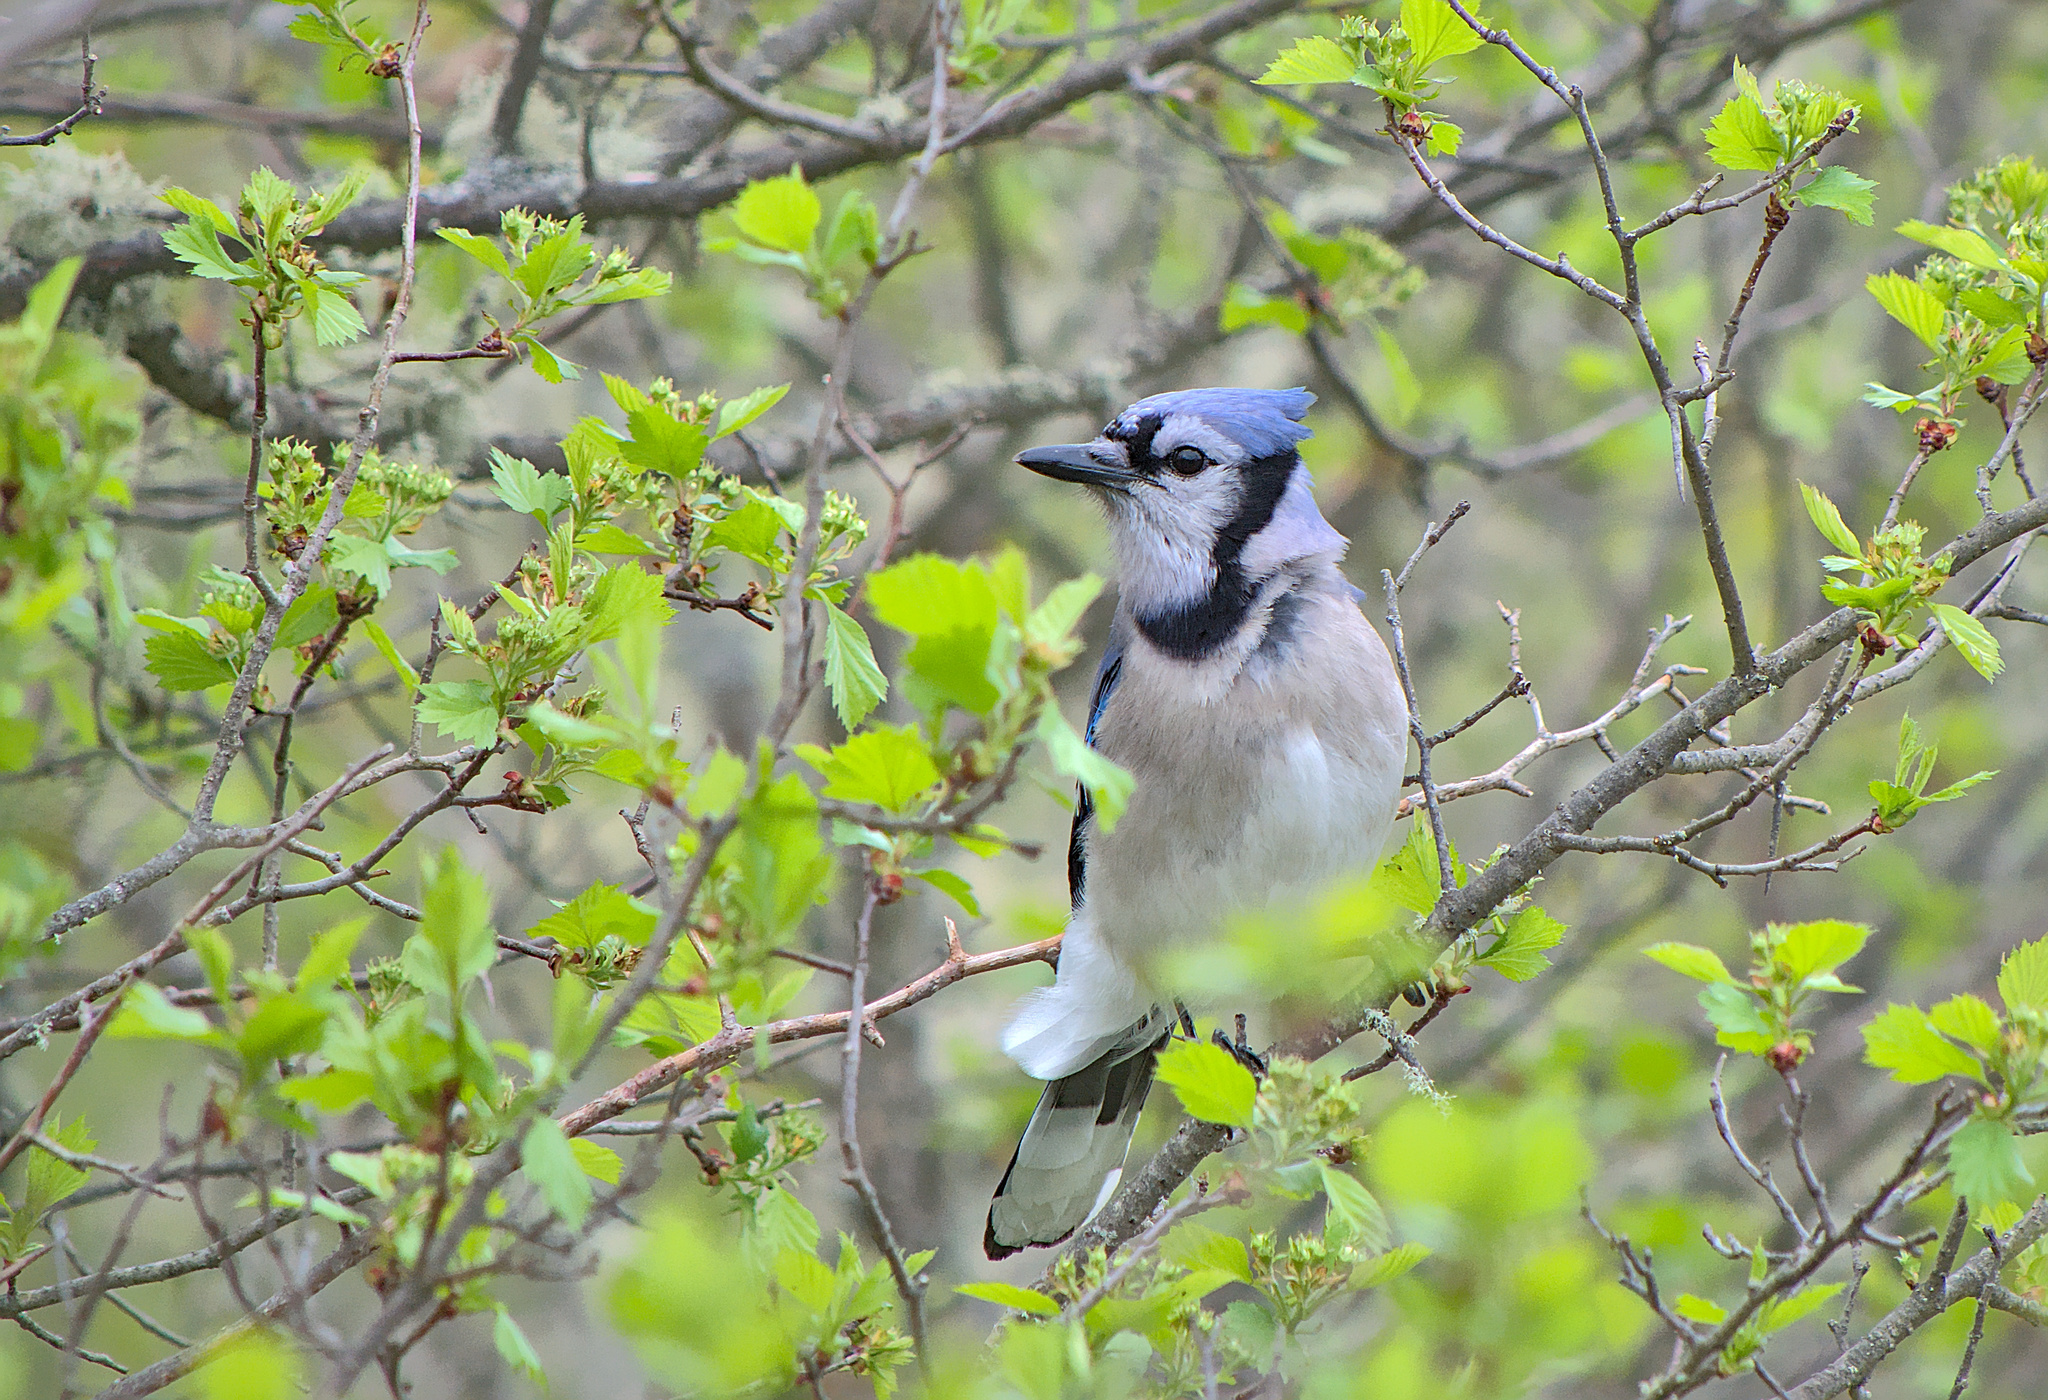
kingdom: Animalia
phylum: Chordata
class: Aves
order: Passeriformes
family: Corvidae
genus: Cyanocitta
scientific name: Cyanocitta cristata
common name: Blue jay
